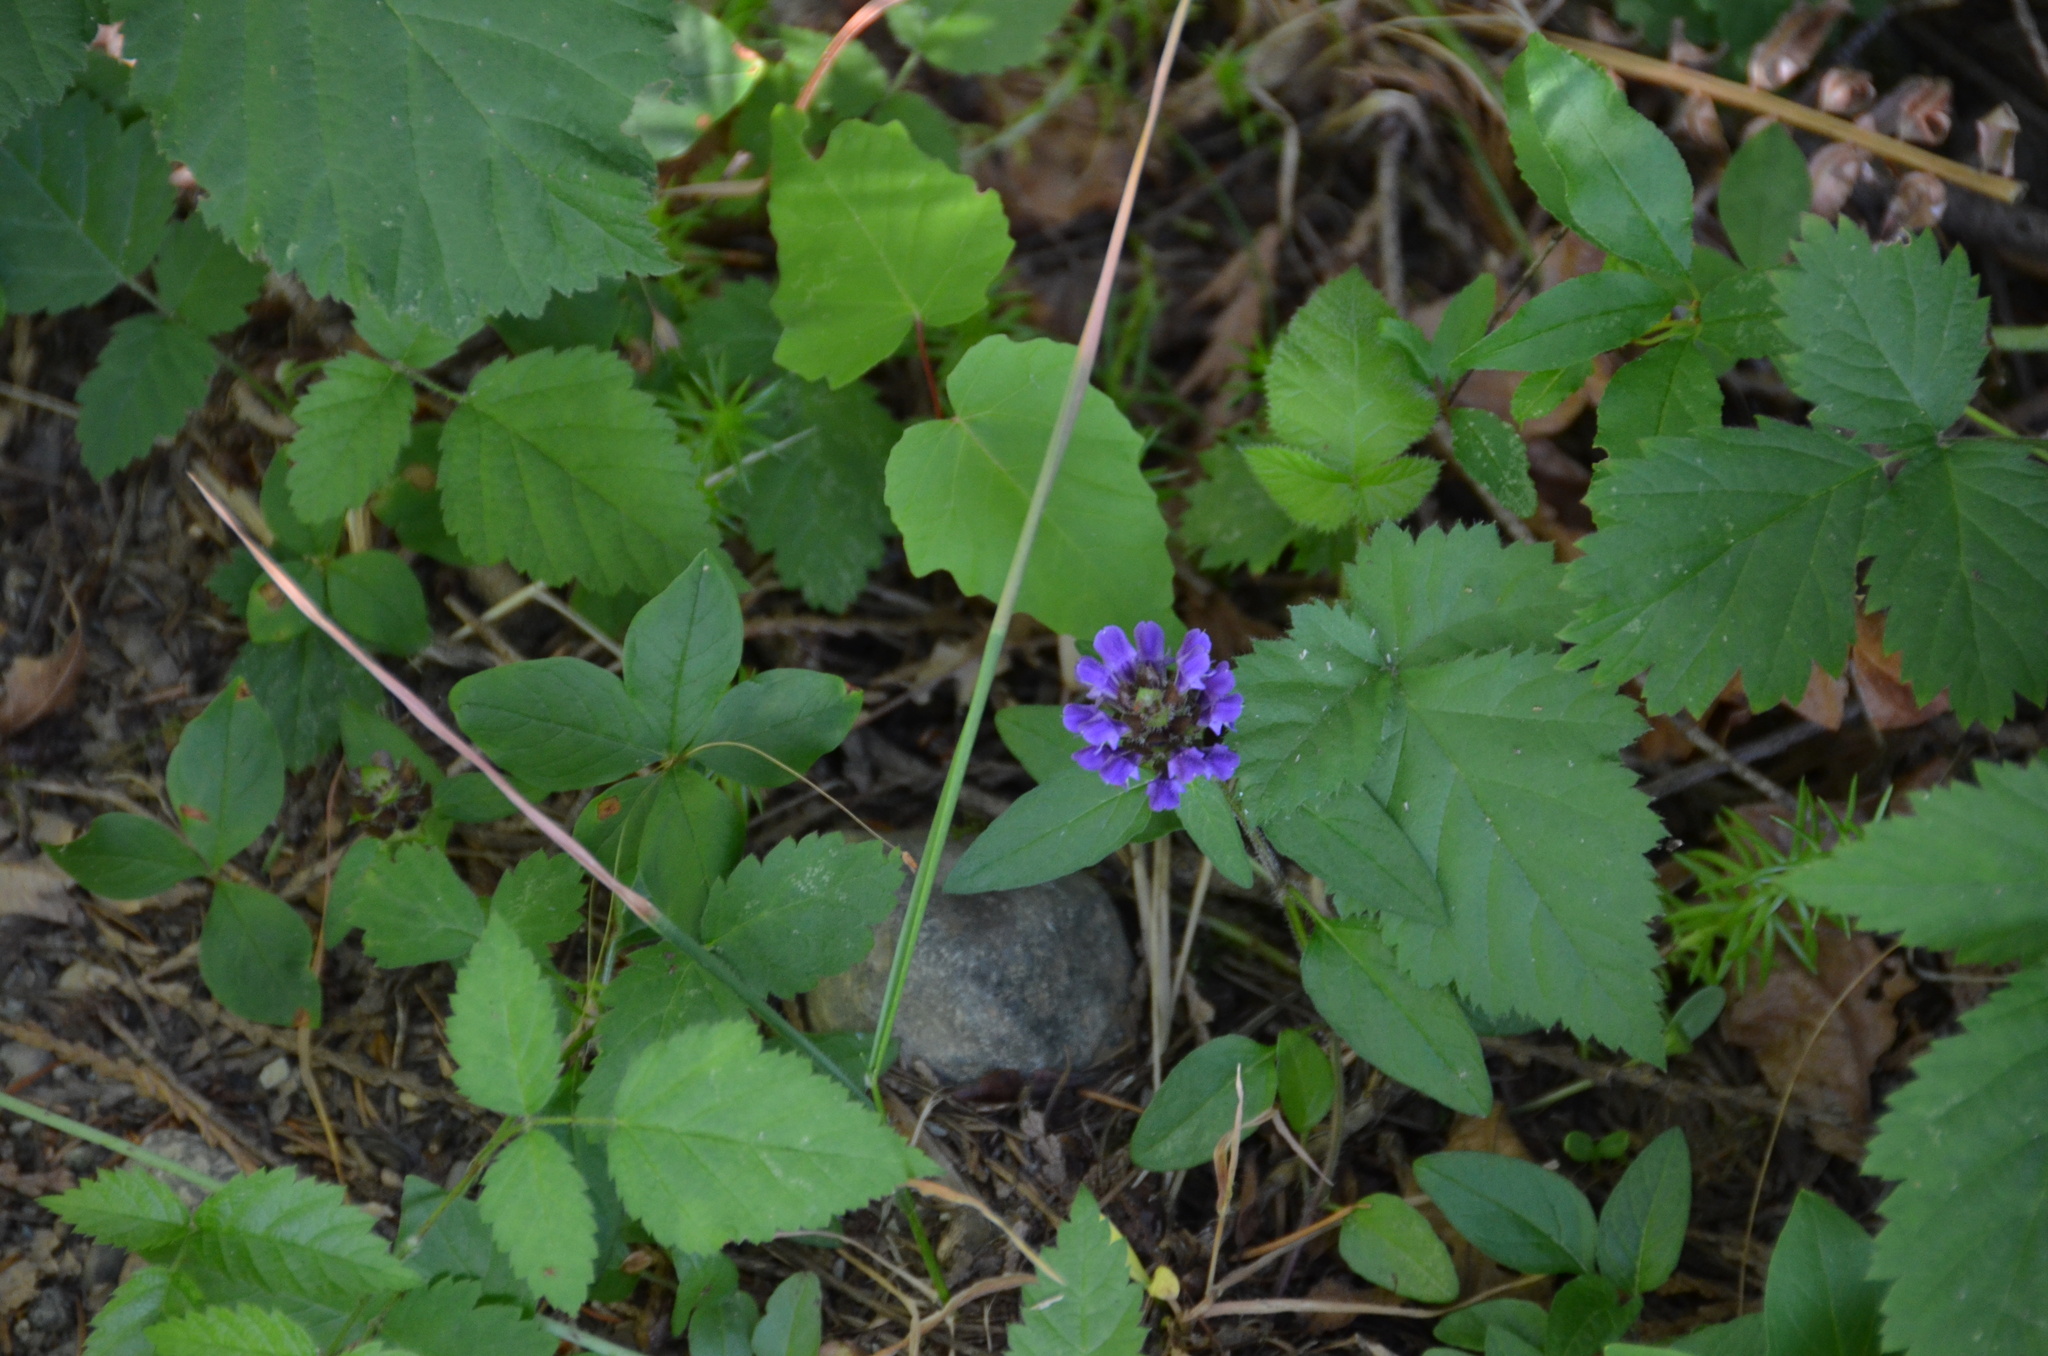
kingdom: Plantae
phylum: Tracheophyta
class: Magnoliopsida
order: Lamiales
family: Lamiaceae
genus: Prunella
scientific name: Prunella vulgaris
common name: Heal-all
